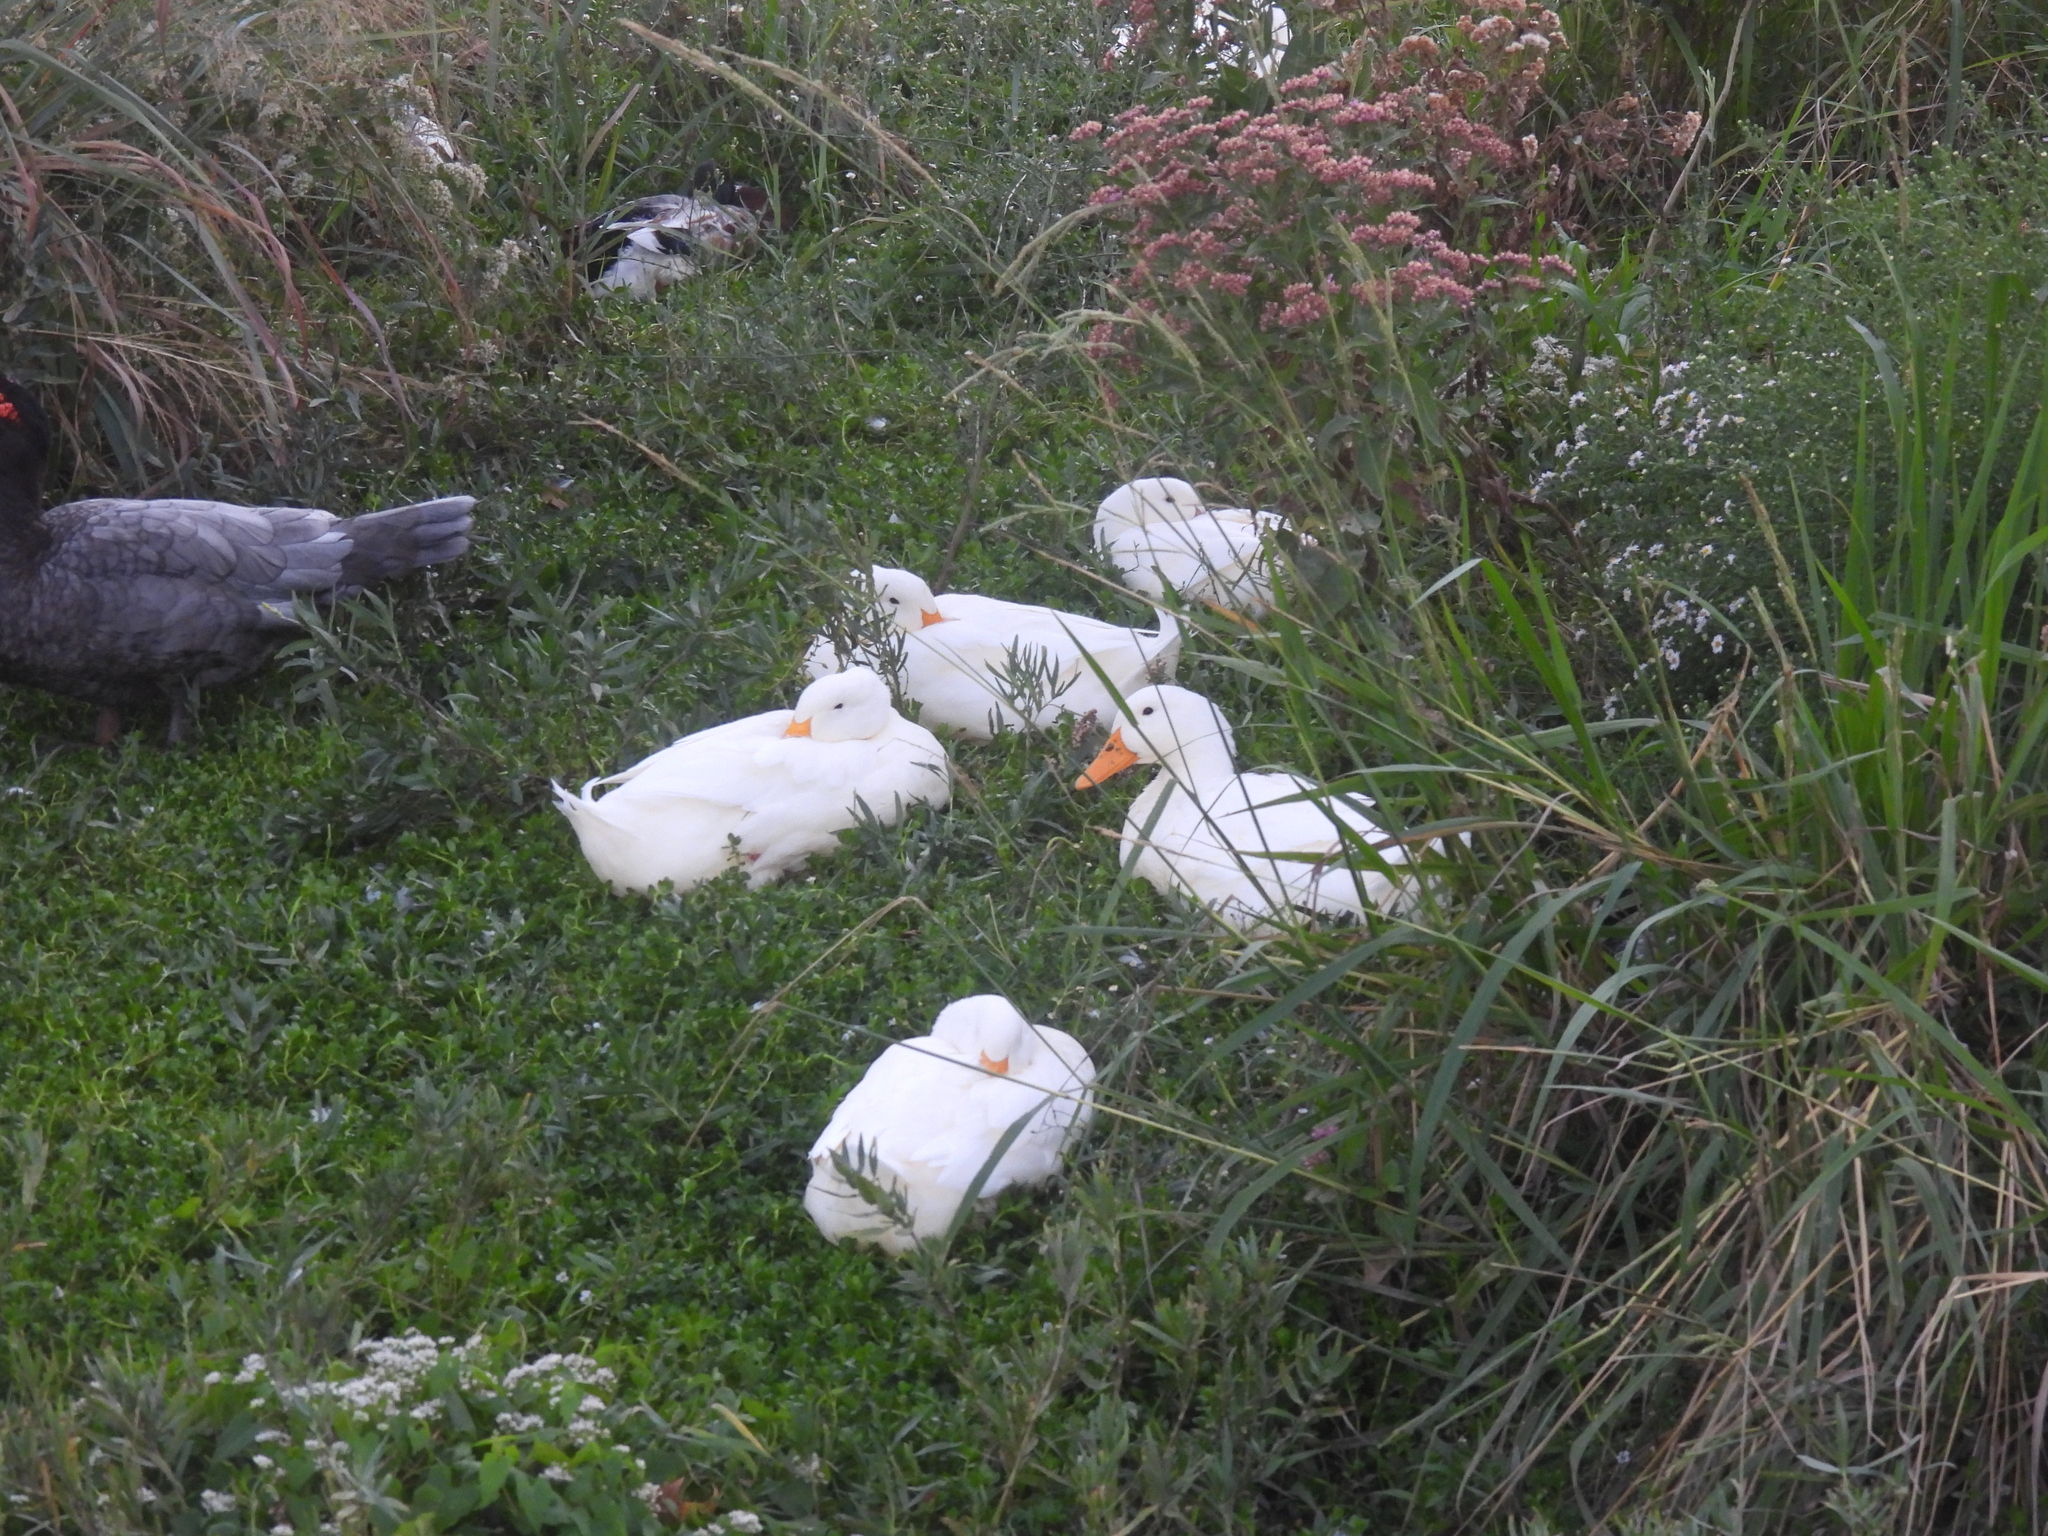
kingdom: Animalia
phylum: Chordata
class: Aves
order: Anseriformes
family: Anatidae
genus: Anas
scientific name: Anas platyrhynchos
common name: Mallard
